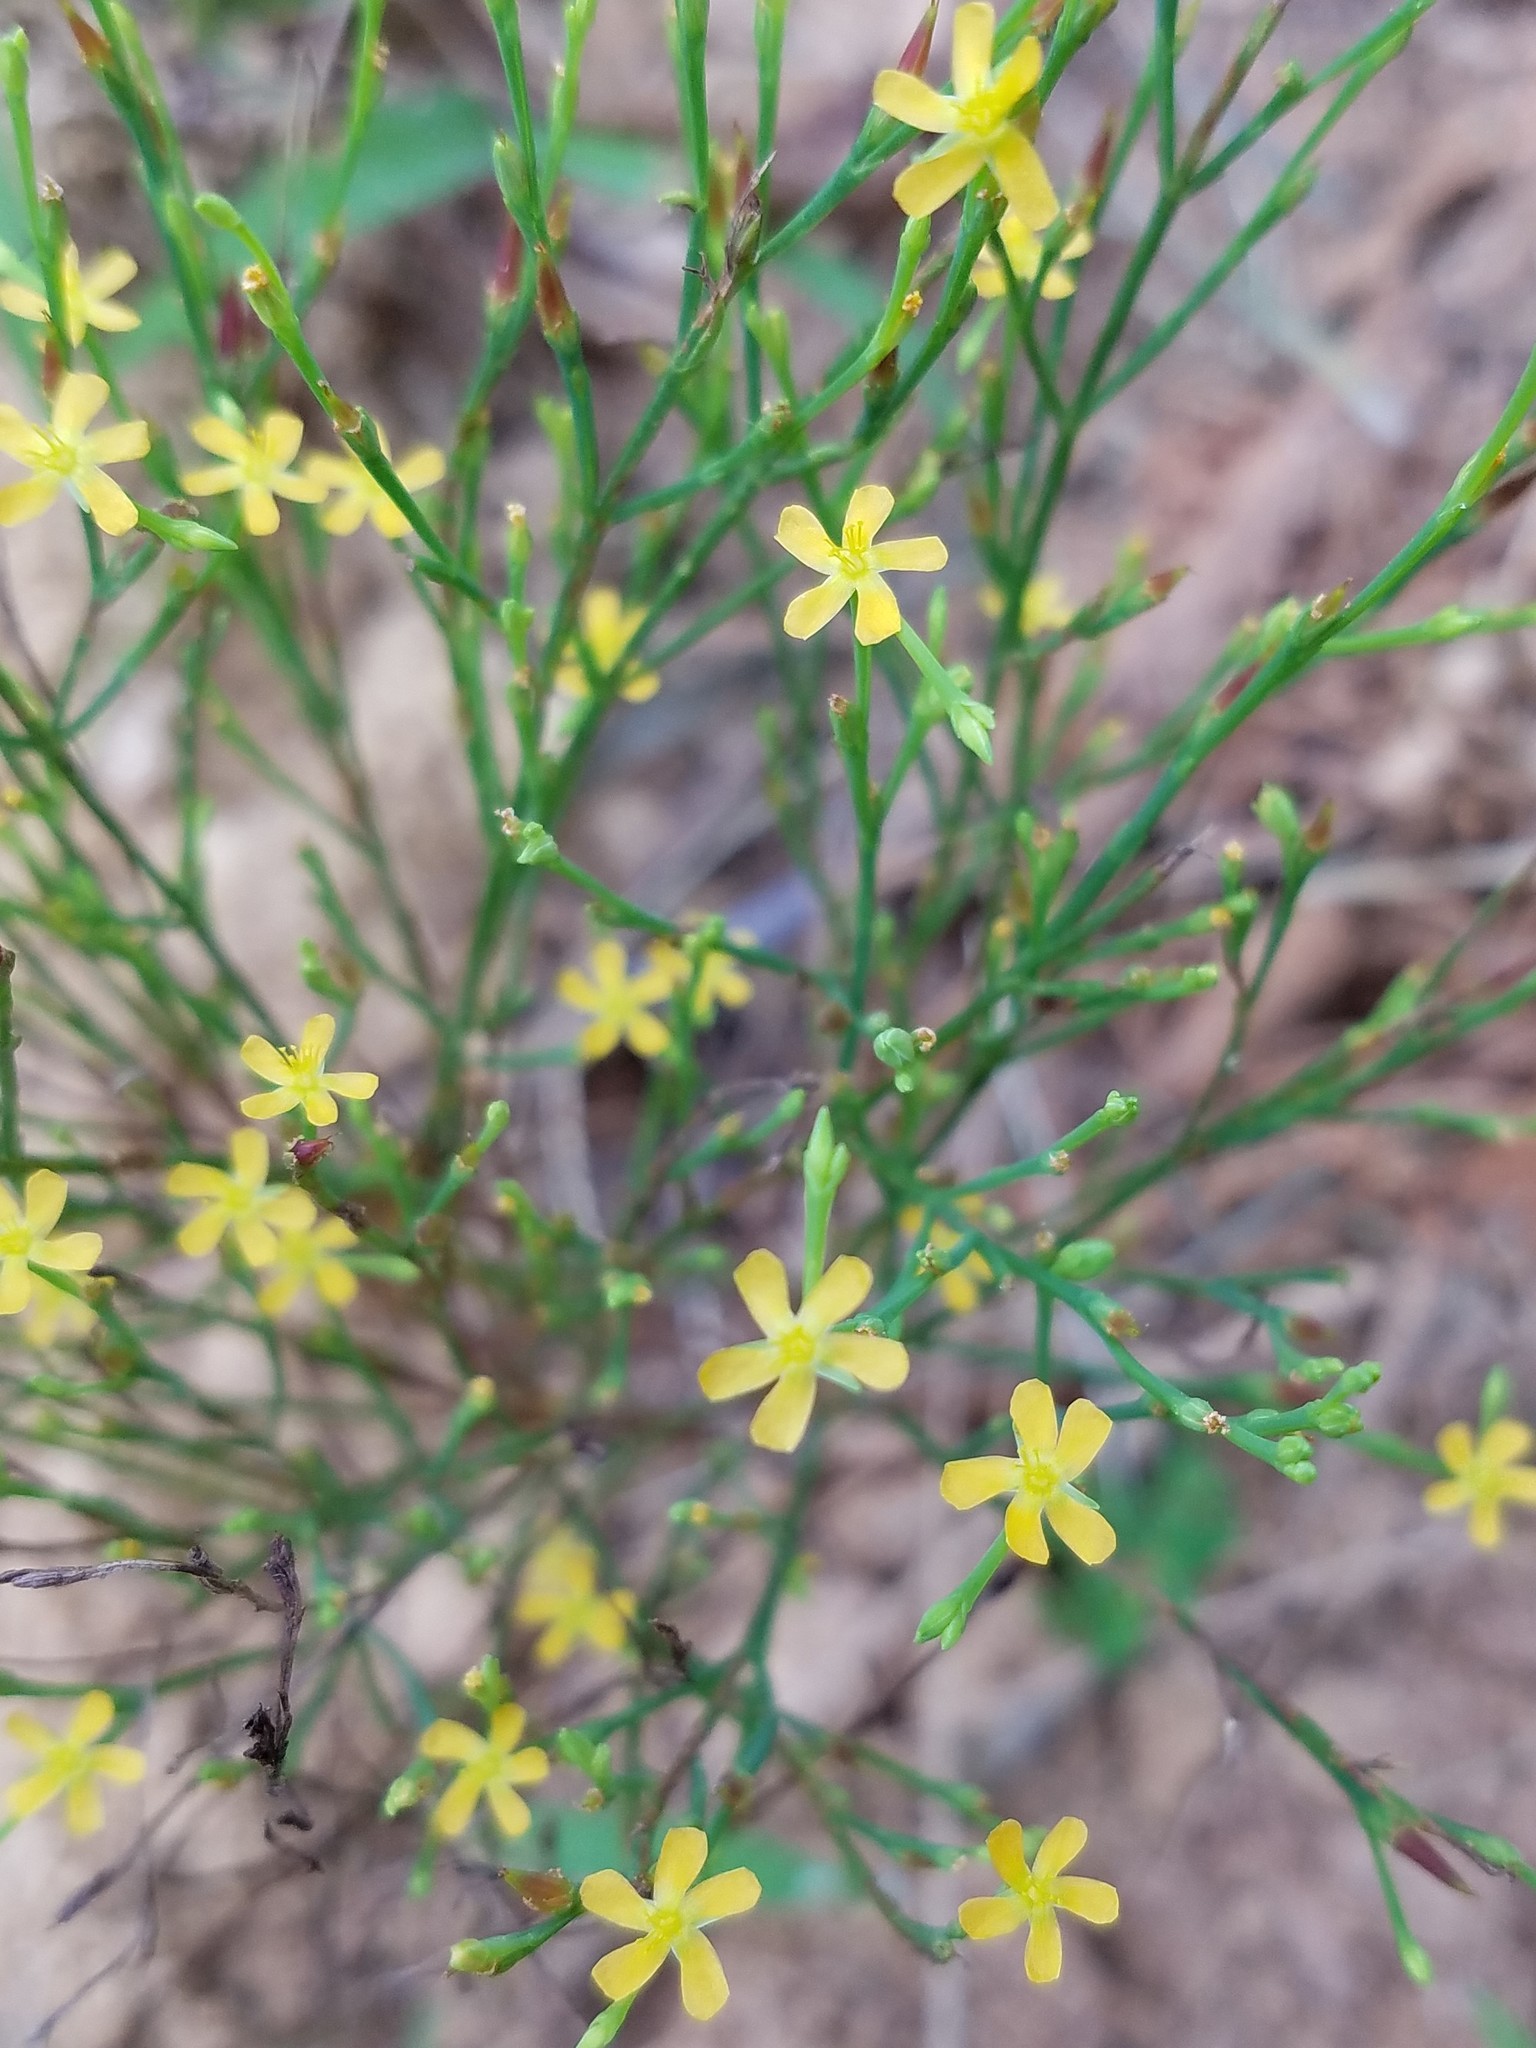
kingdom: Plantae
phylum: Tracheophyta
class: Magnoliopsida
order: Malpighiales
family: Hypericaceae
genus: Hypericum
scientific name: Hypericum gentianoides
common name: Gentian-leaved st. john's-wort
